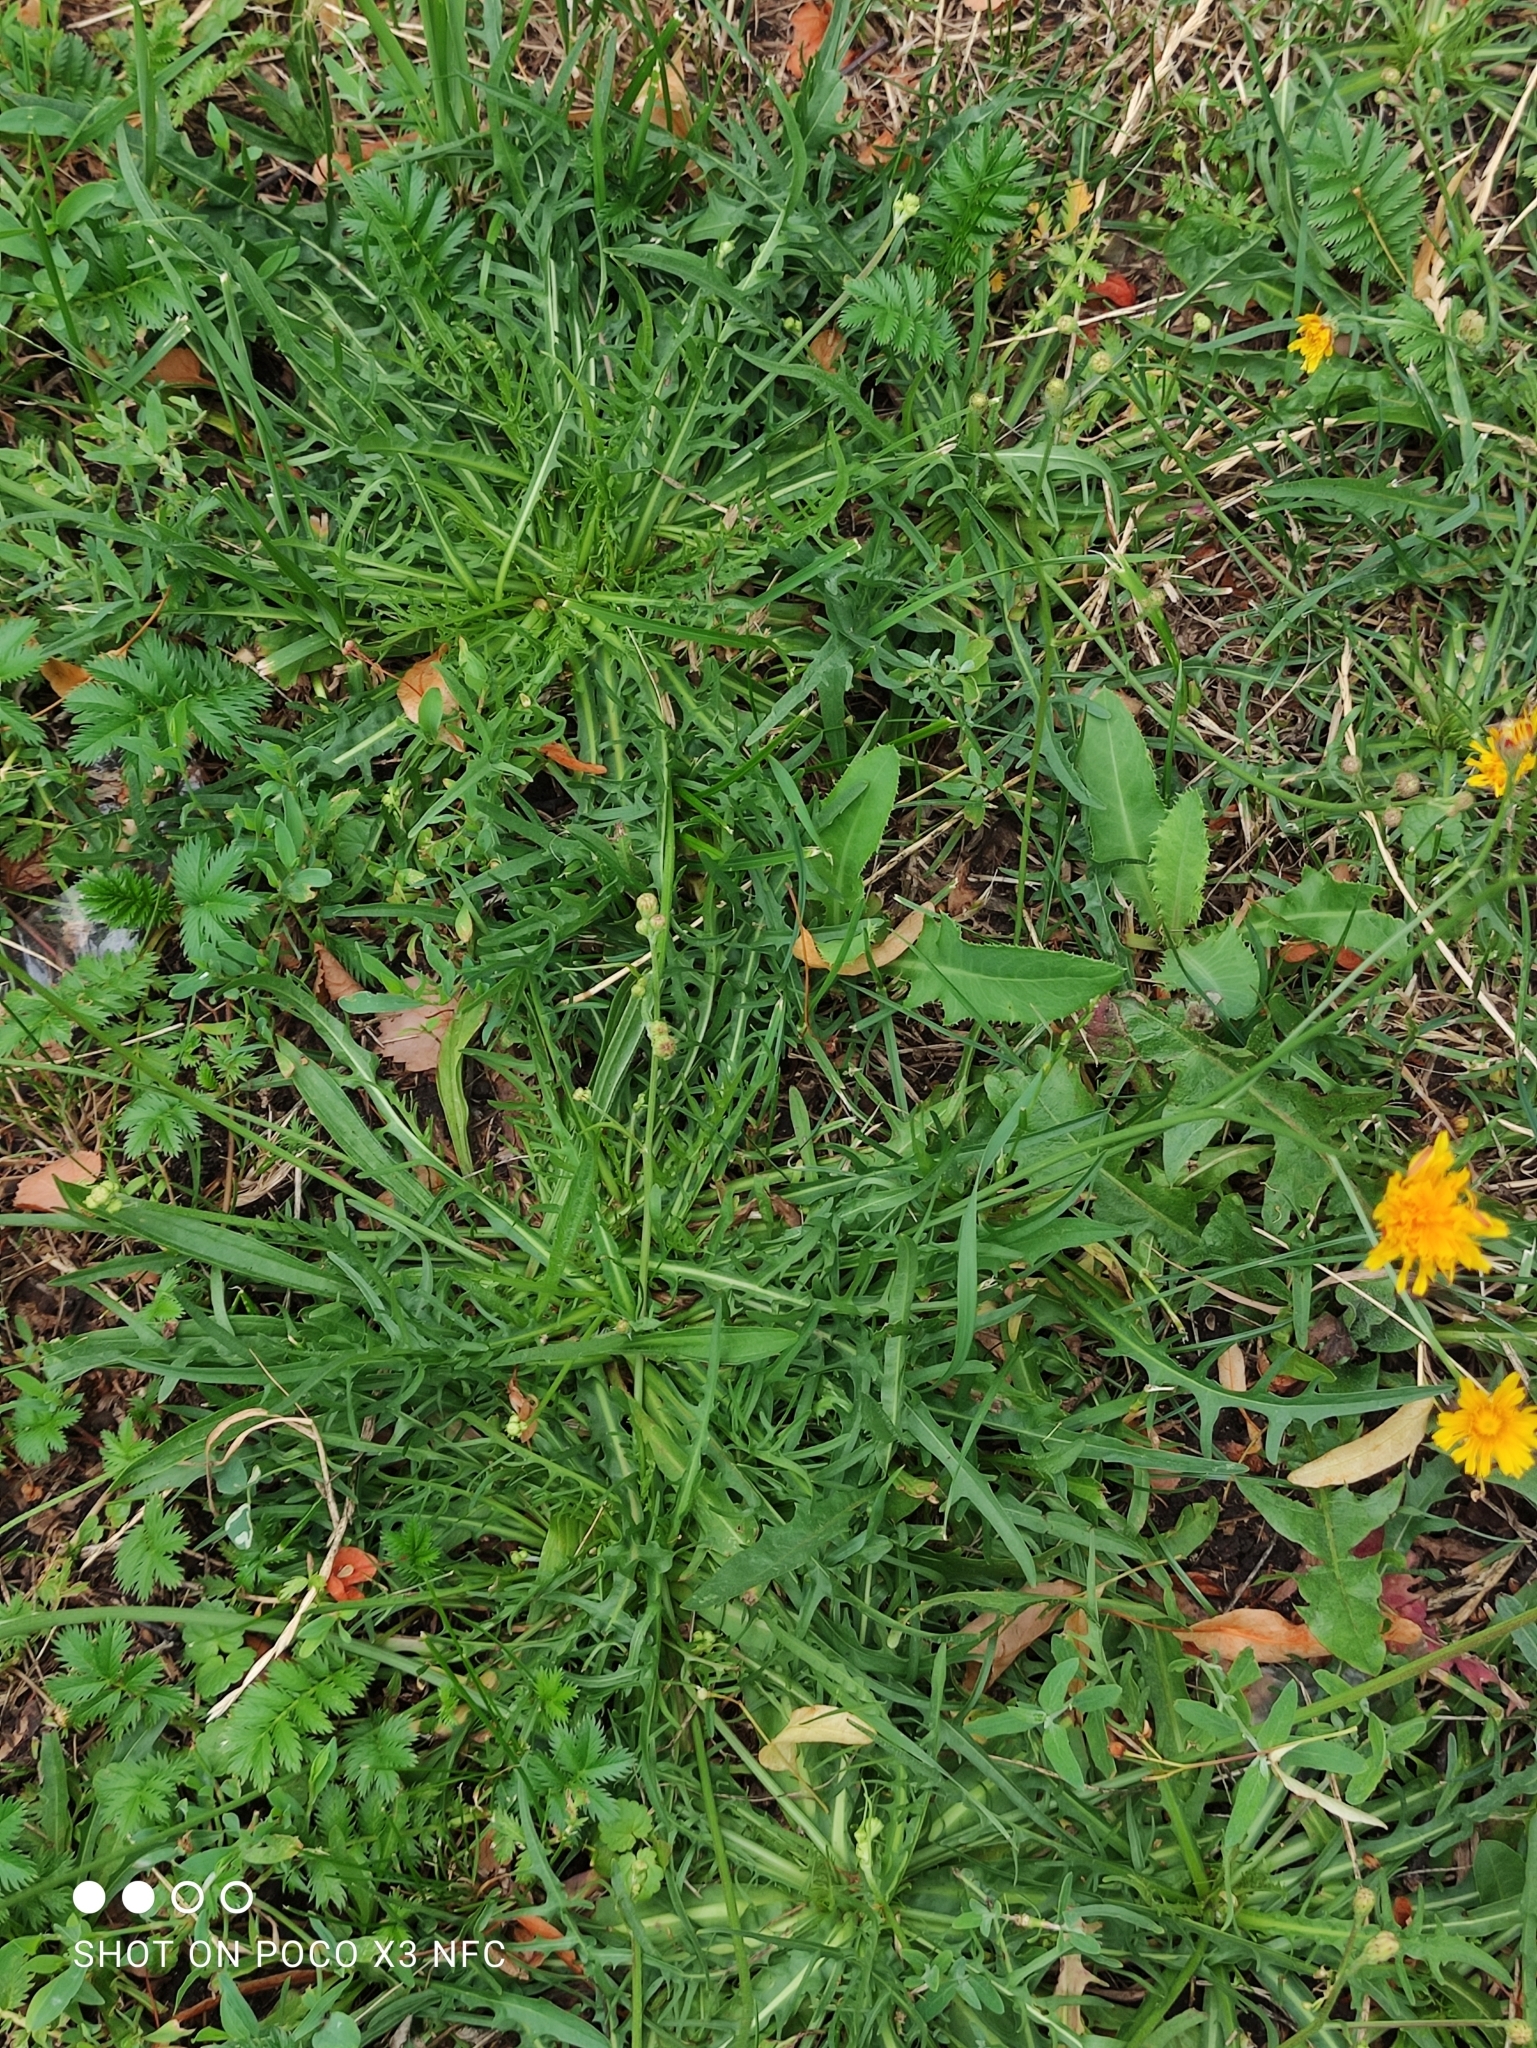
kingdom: Plantae
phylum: Tracheophyta
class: Magnoliopsida
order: Asterales
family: Asteraceae
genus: Scorzoneroides
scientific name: Scorzoneroides autumnalis
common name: Autumn hawkbit
